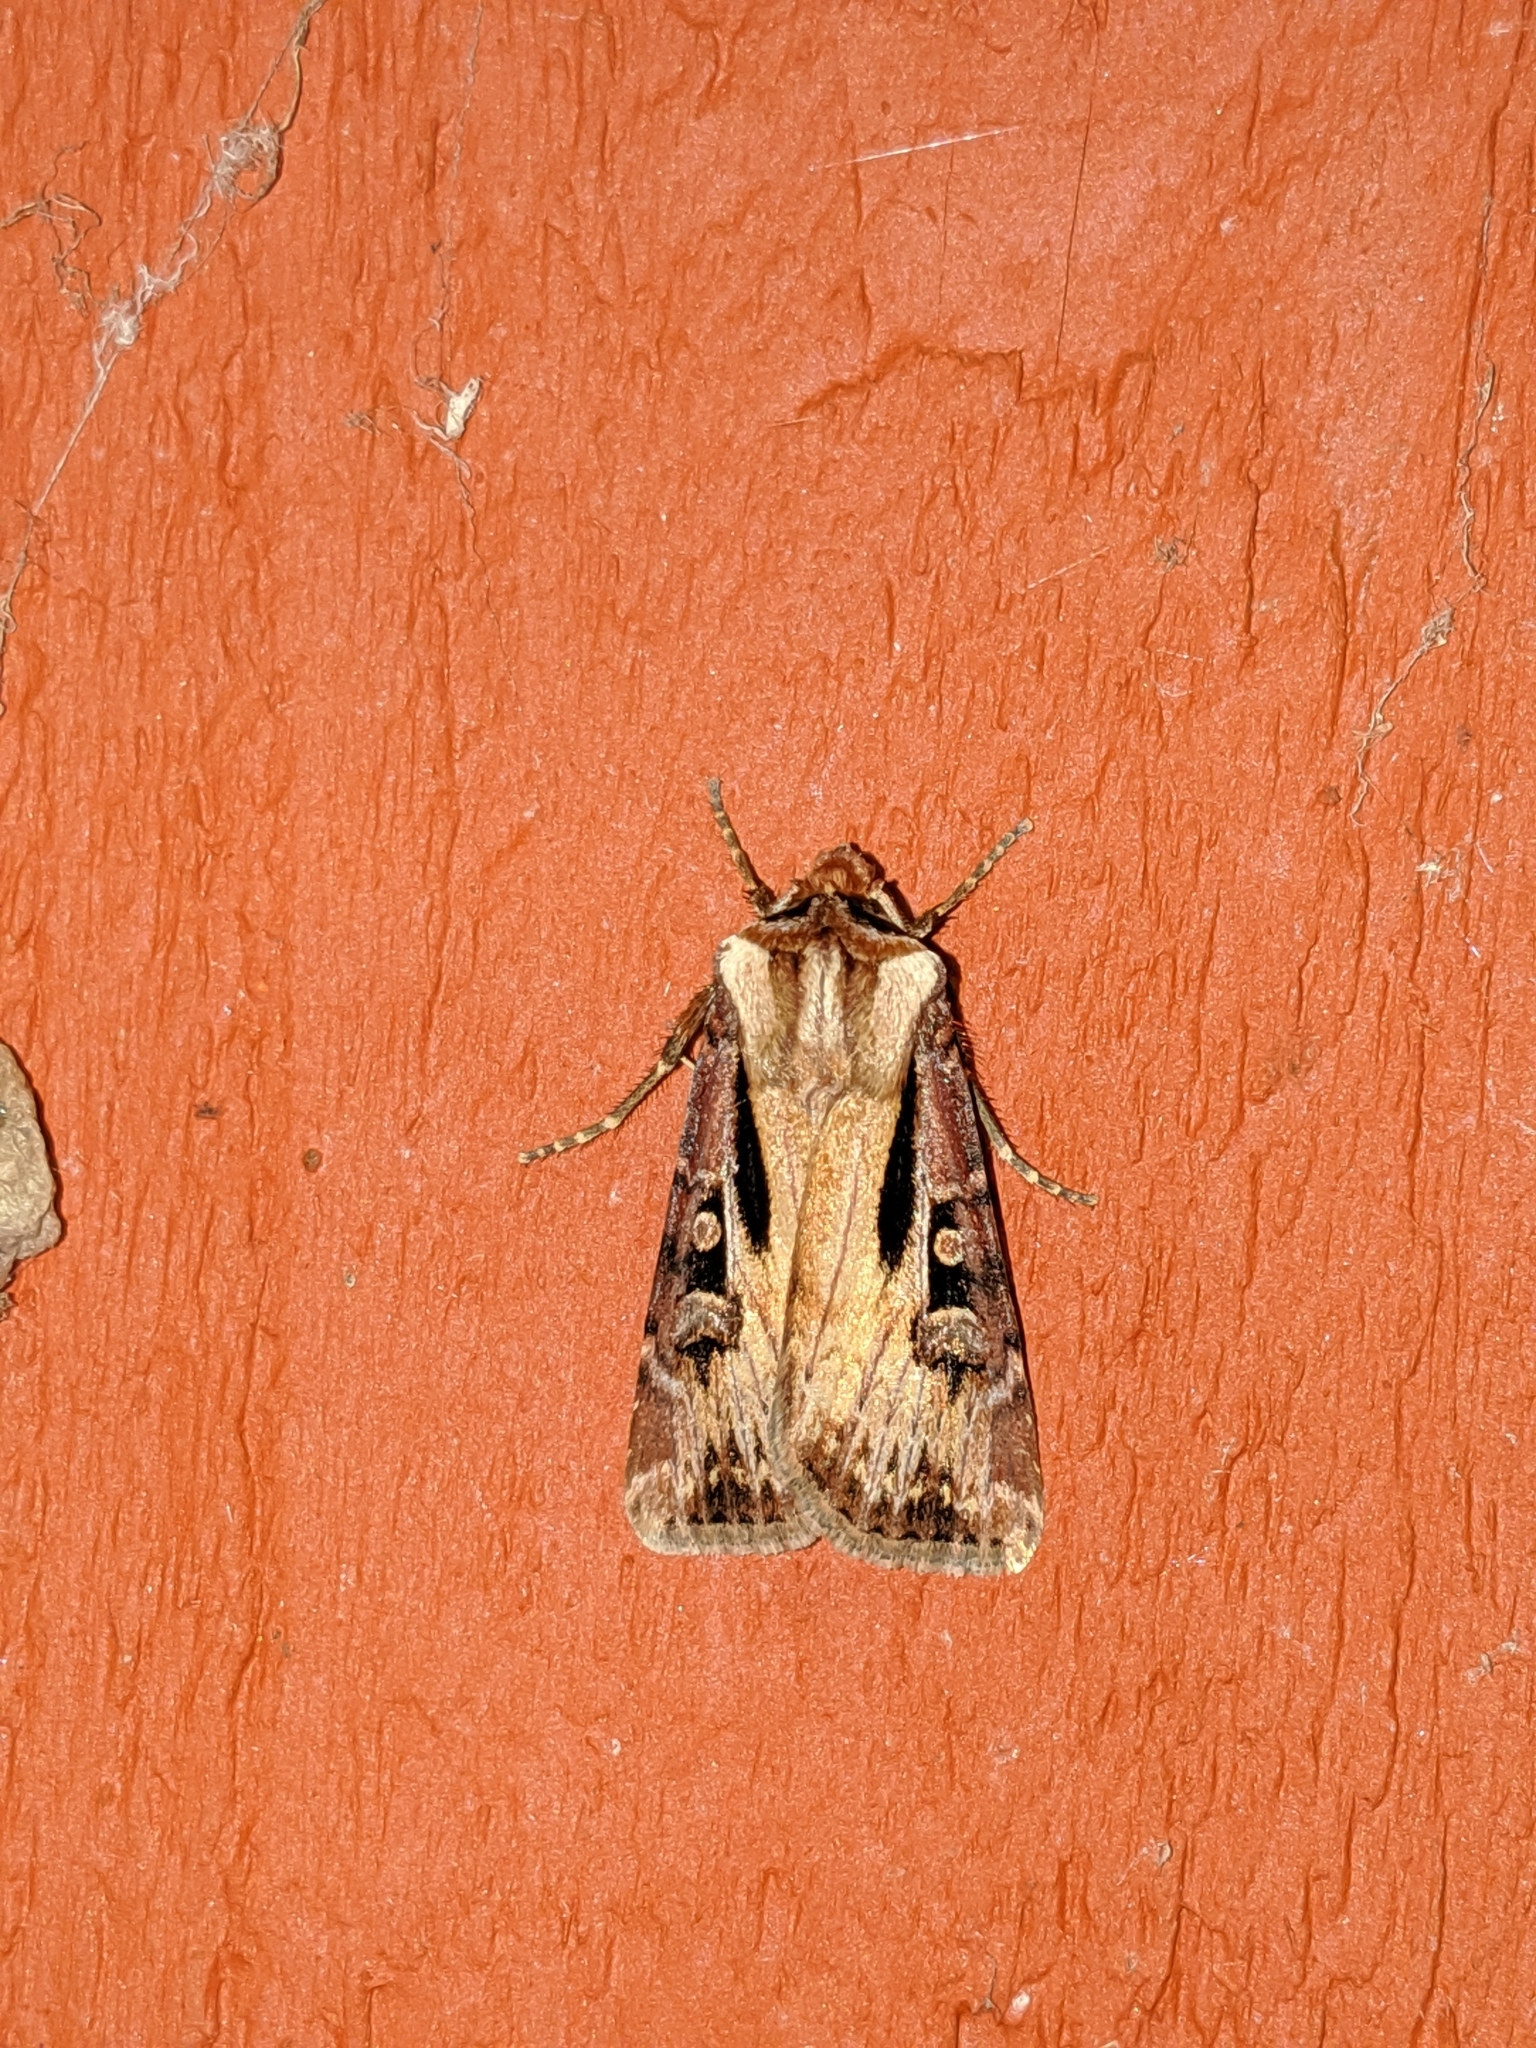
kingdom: Animalia
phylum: Arthropoda
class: Insecta
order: Lepidoptera
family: Noctuidae
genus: Agrotis
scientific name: Agrotis vancouverensis
